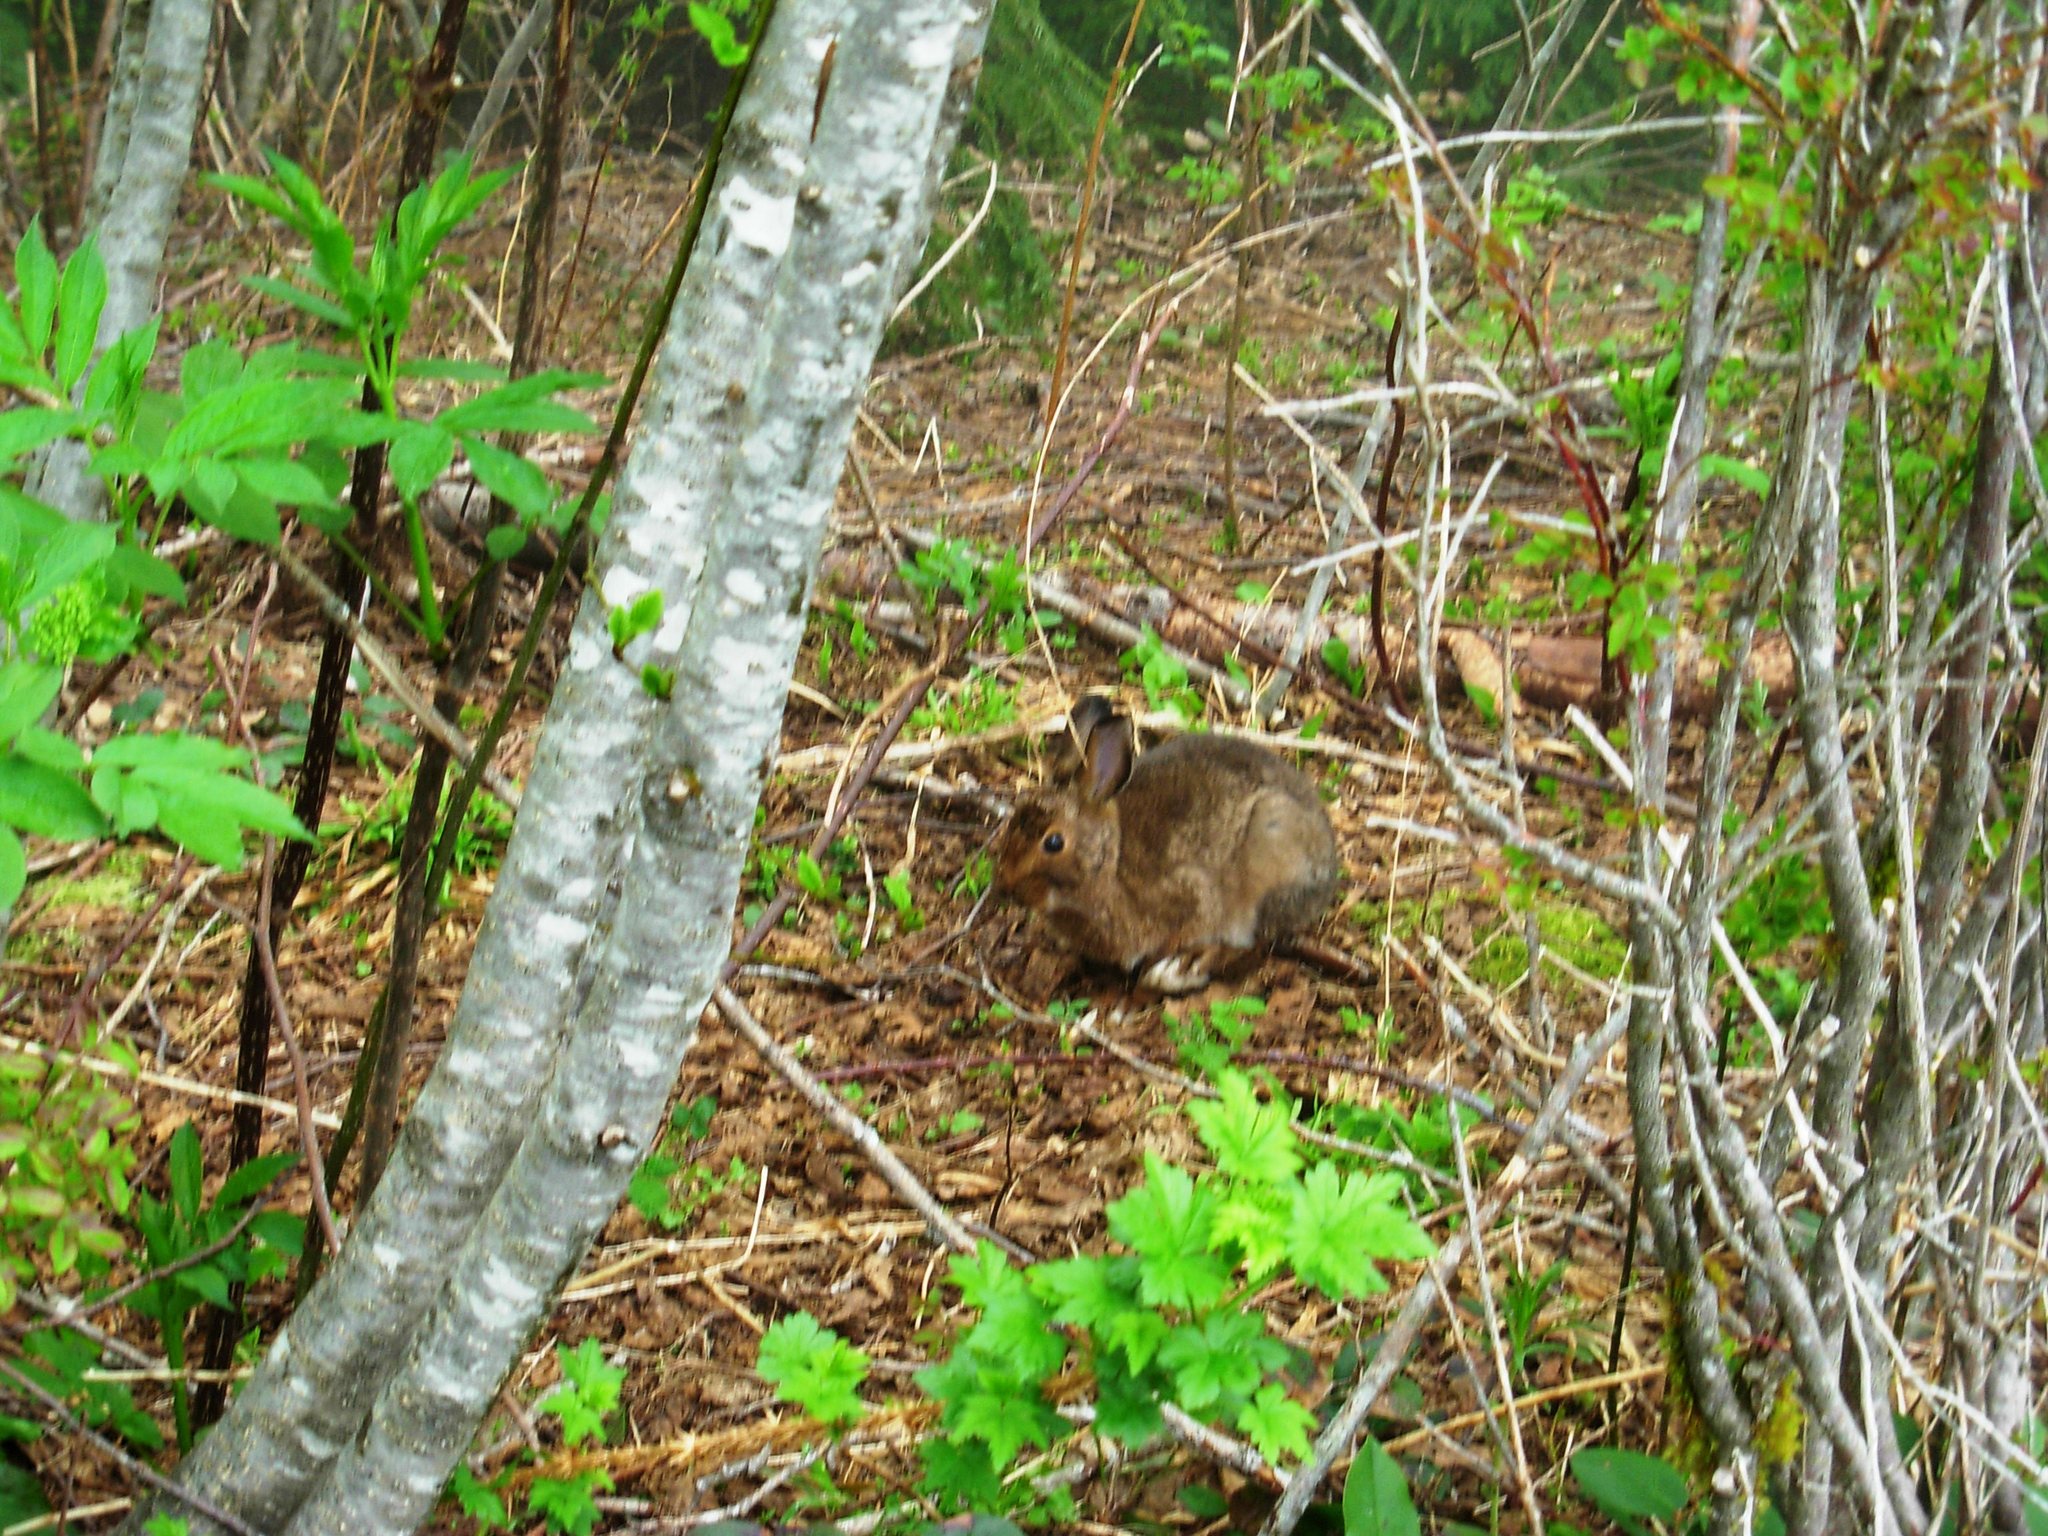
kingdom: Animalia
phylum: Chordata
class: Mammalia
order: Lagomorpha
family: Leporidae
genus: Lepus
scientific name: Lepus americanus
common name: Snowshoe hare
